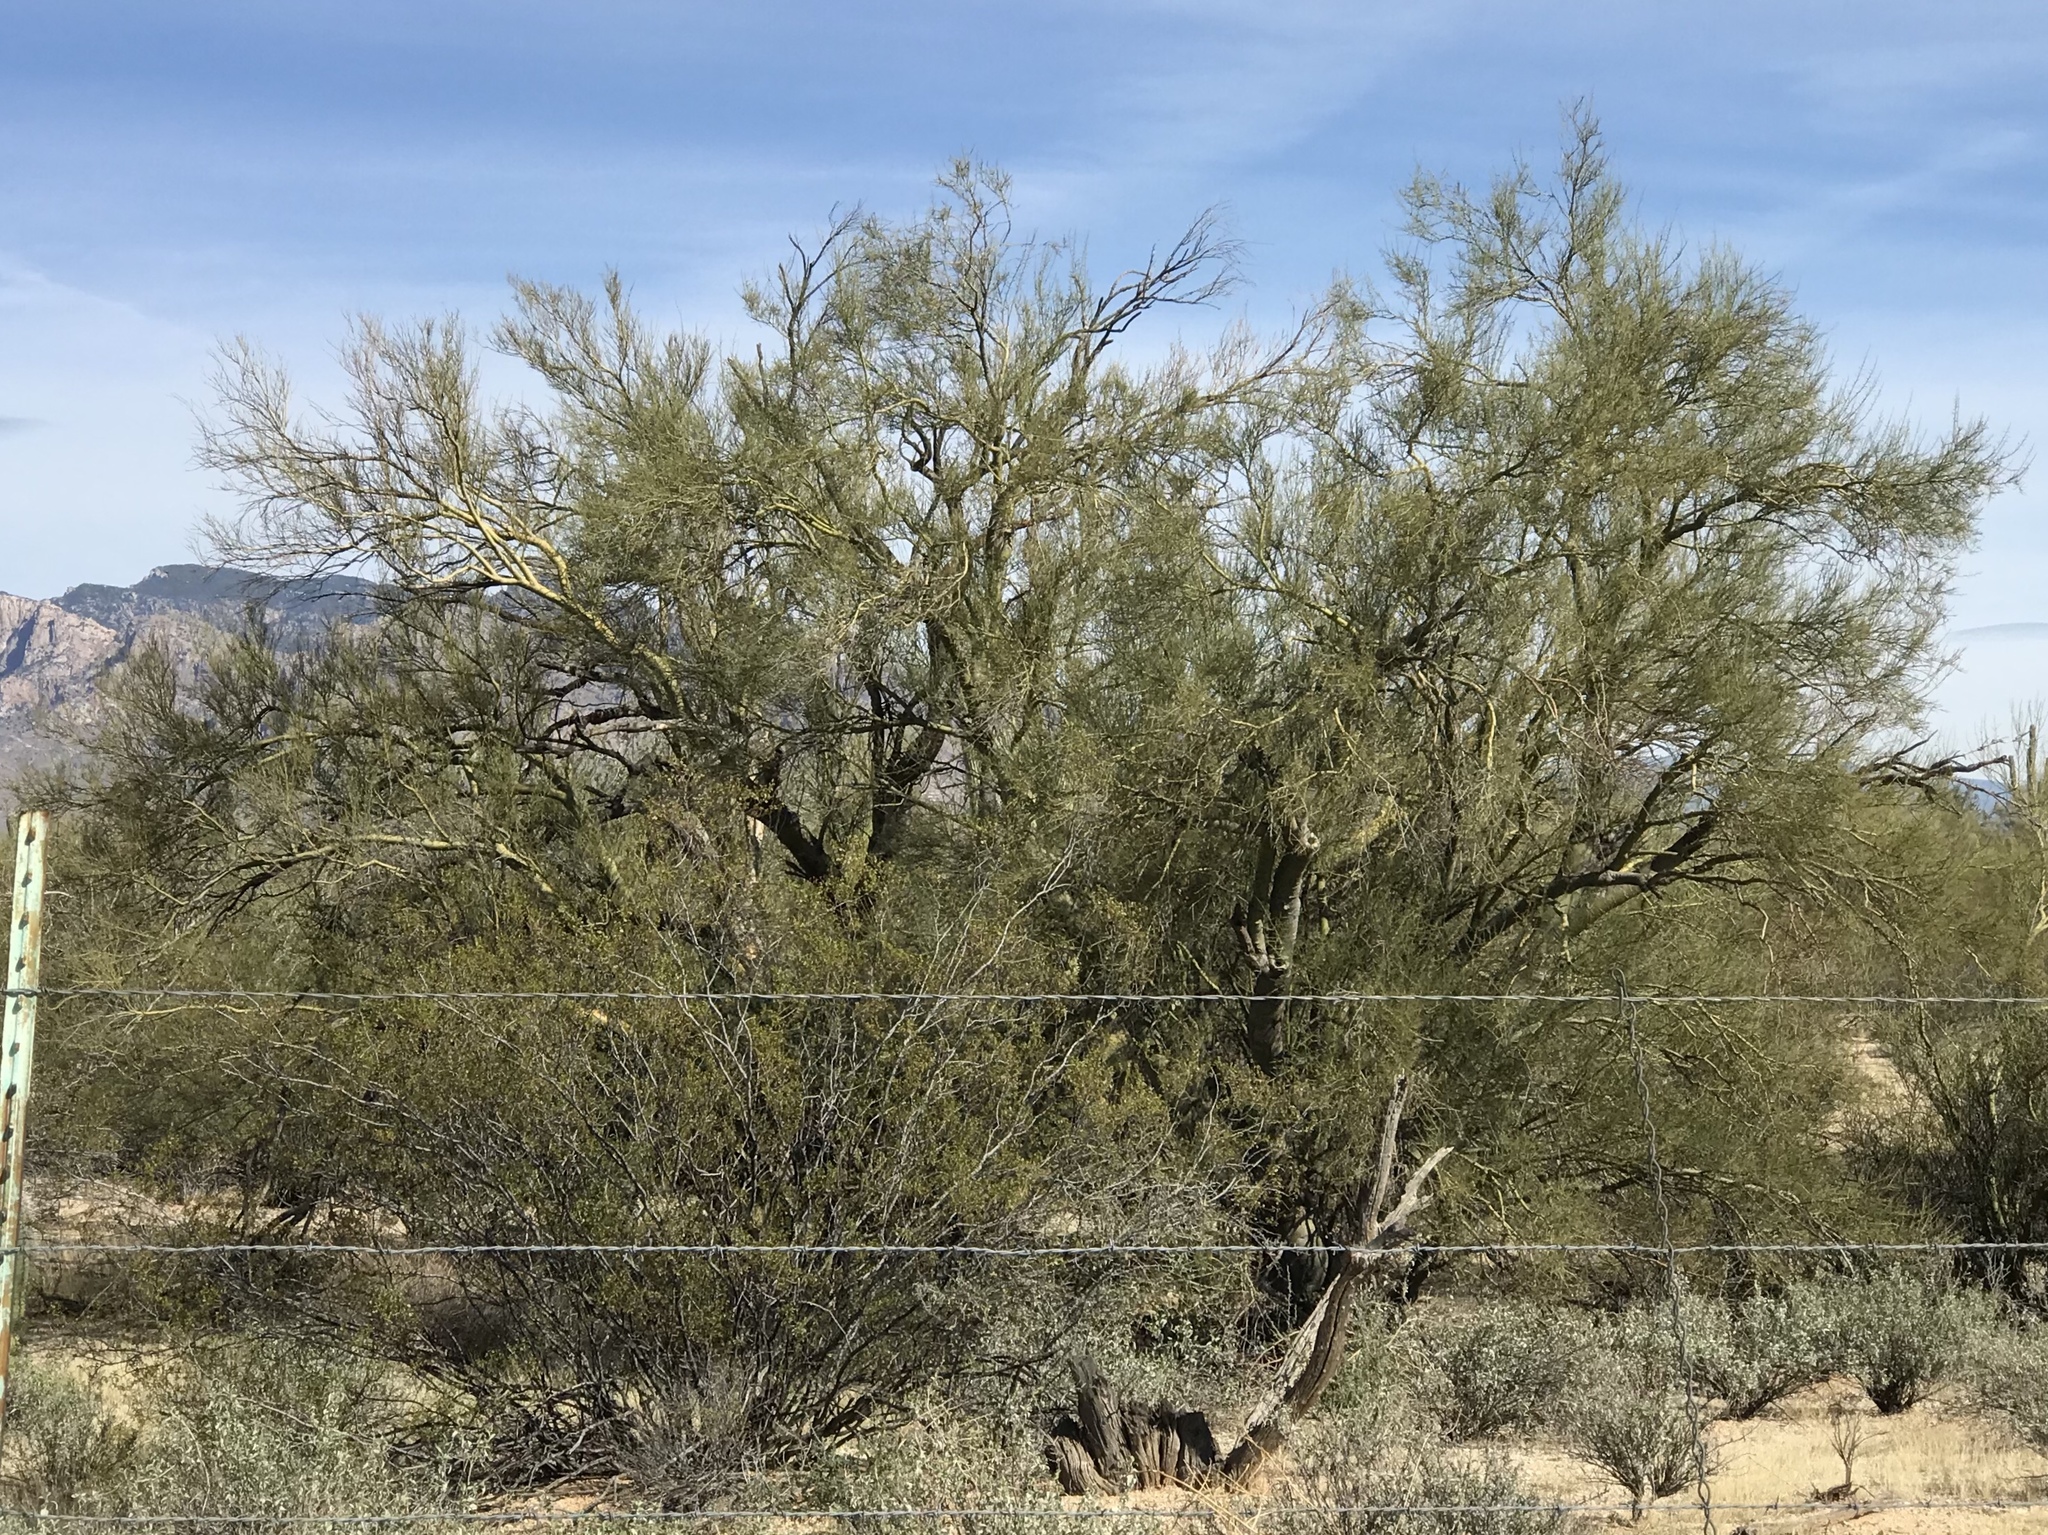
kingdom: Plantae
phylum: Tracheophyta
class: Magnoliopsida
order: Fabales
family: Fabaceae
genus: Parkinsonia
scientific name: Parkinsonia microphylla
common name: Yellow paloverde
